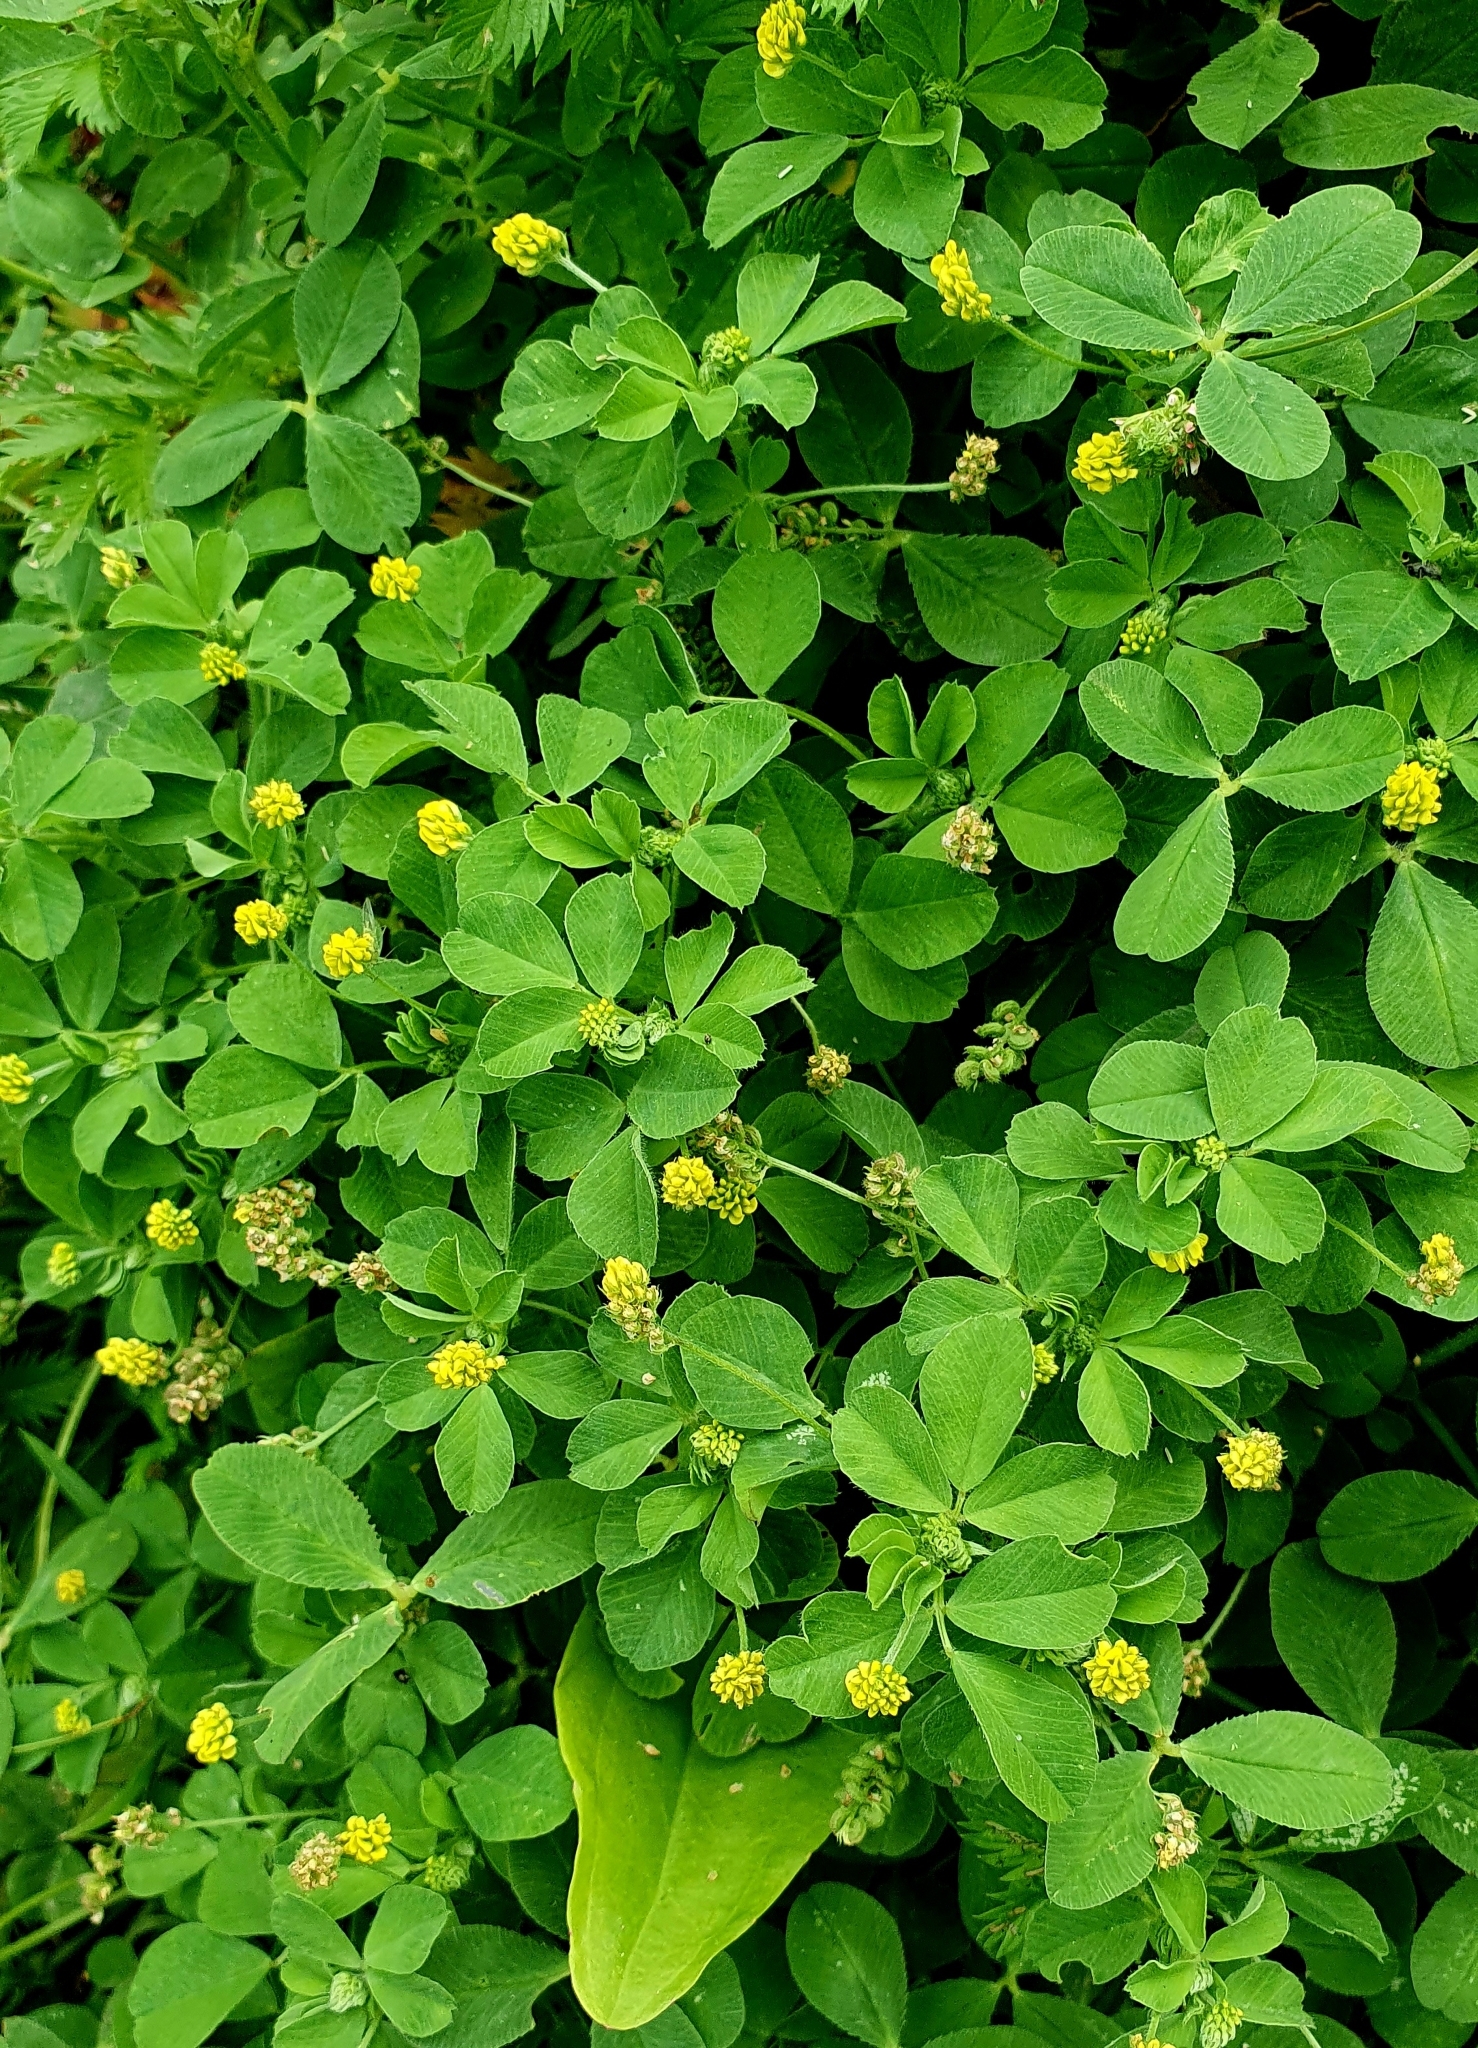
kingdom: Plantae
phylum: Tracheophyta
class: Magnoliopsida
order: Fabales
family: Fabaceae
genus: Medicago
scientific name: Medicago lupulina
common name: Black medick
